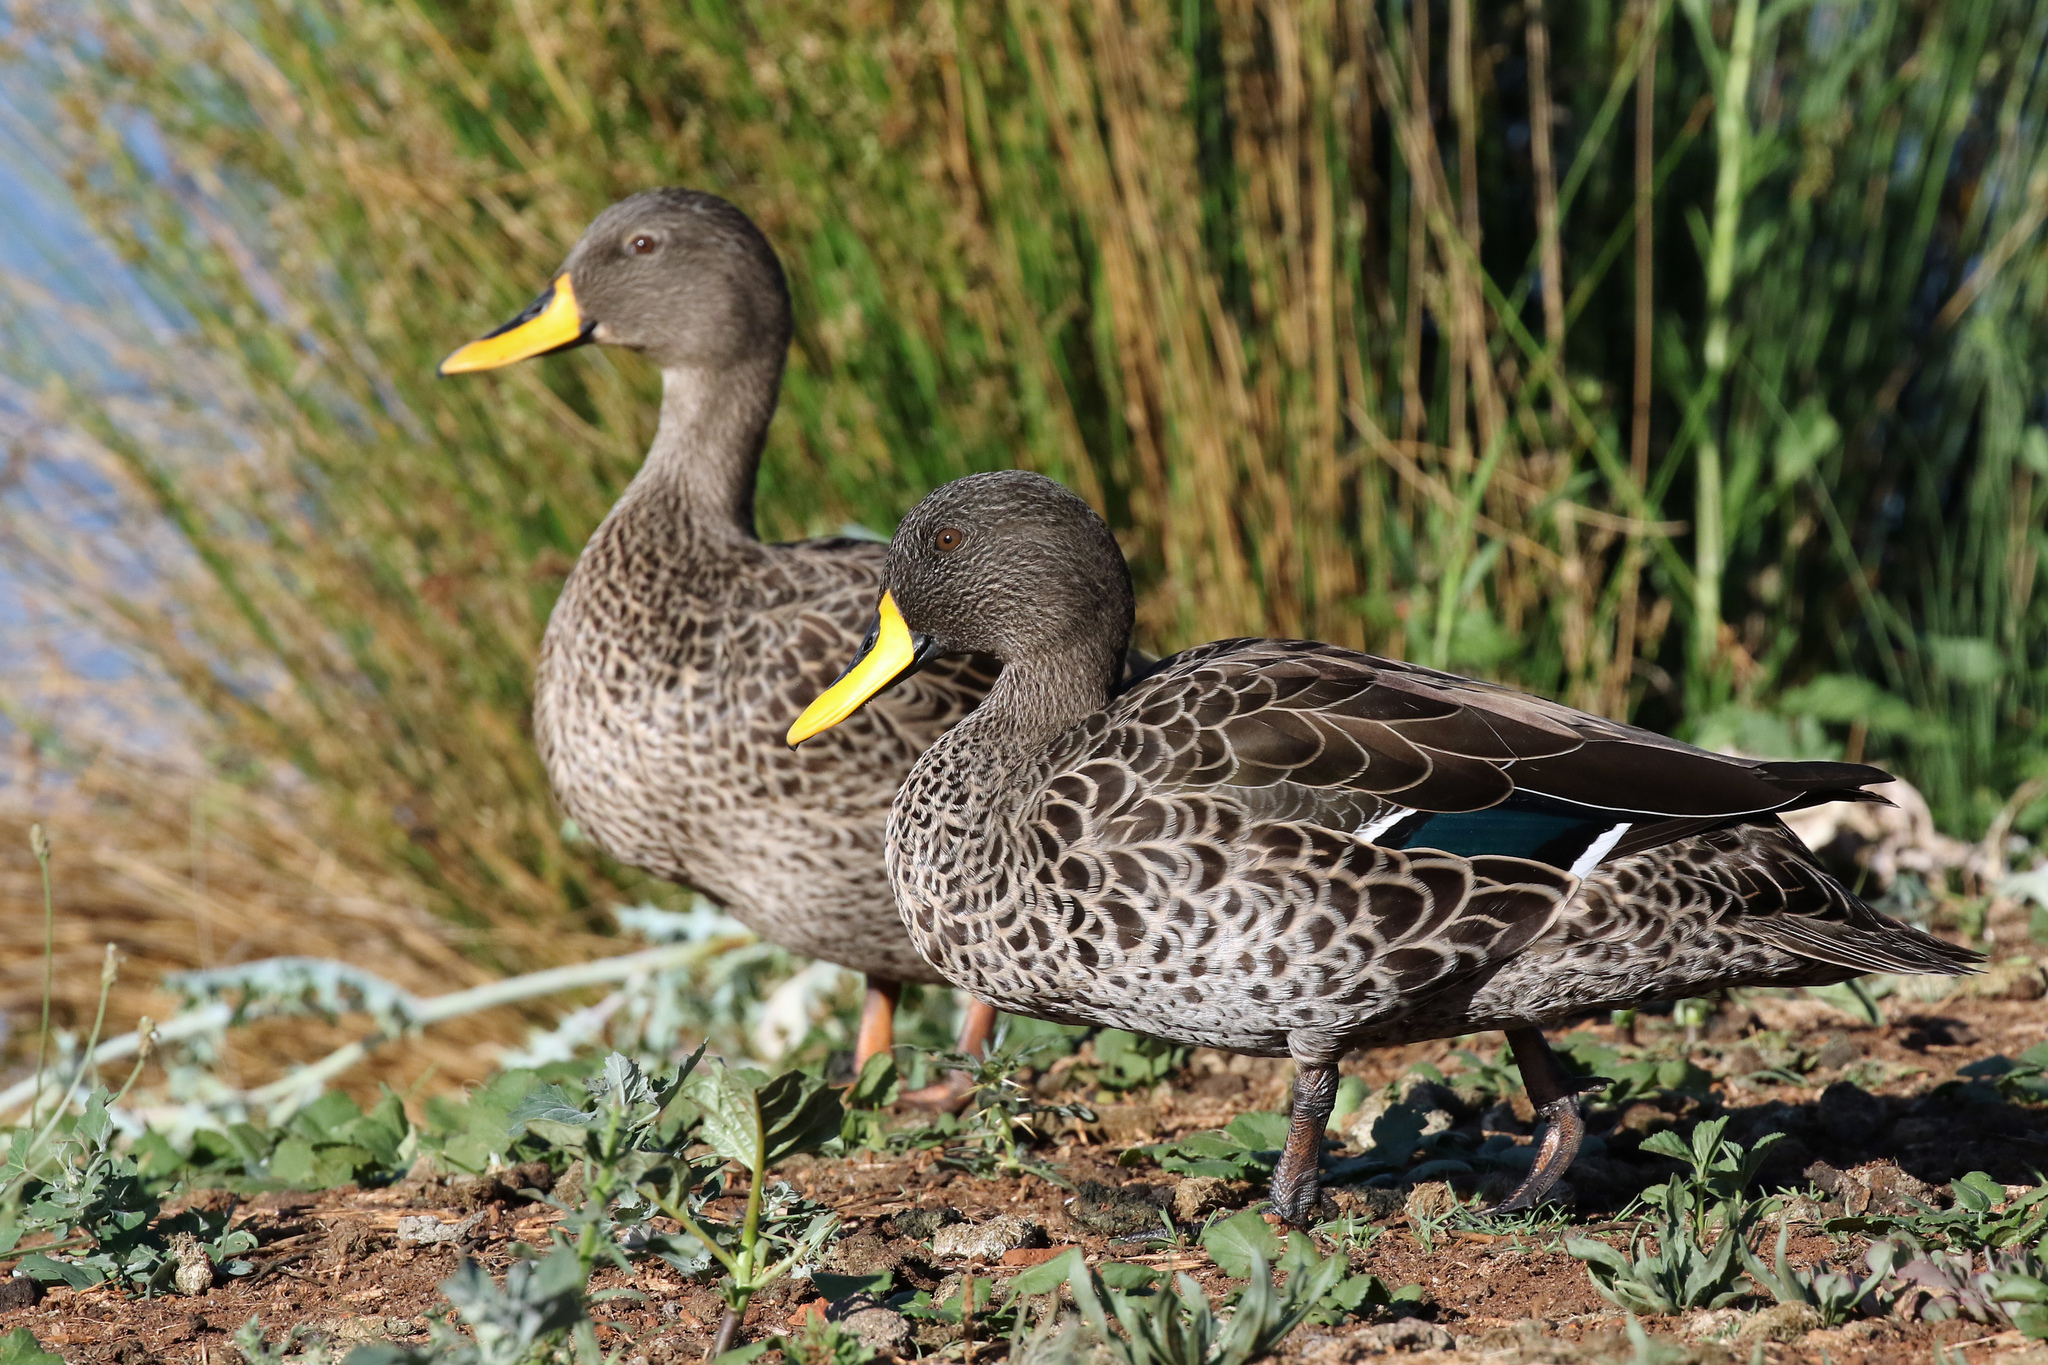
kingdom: Animalia
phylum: Chordata
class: Aves
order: Anseriformes
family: Anatidae
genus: Anas
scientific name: Anas undulata
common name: Yellow-billed duck
